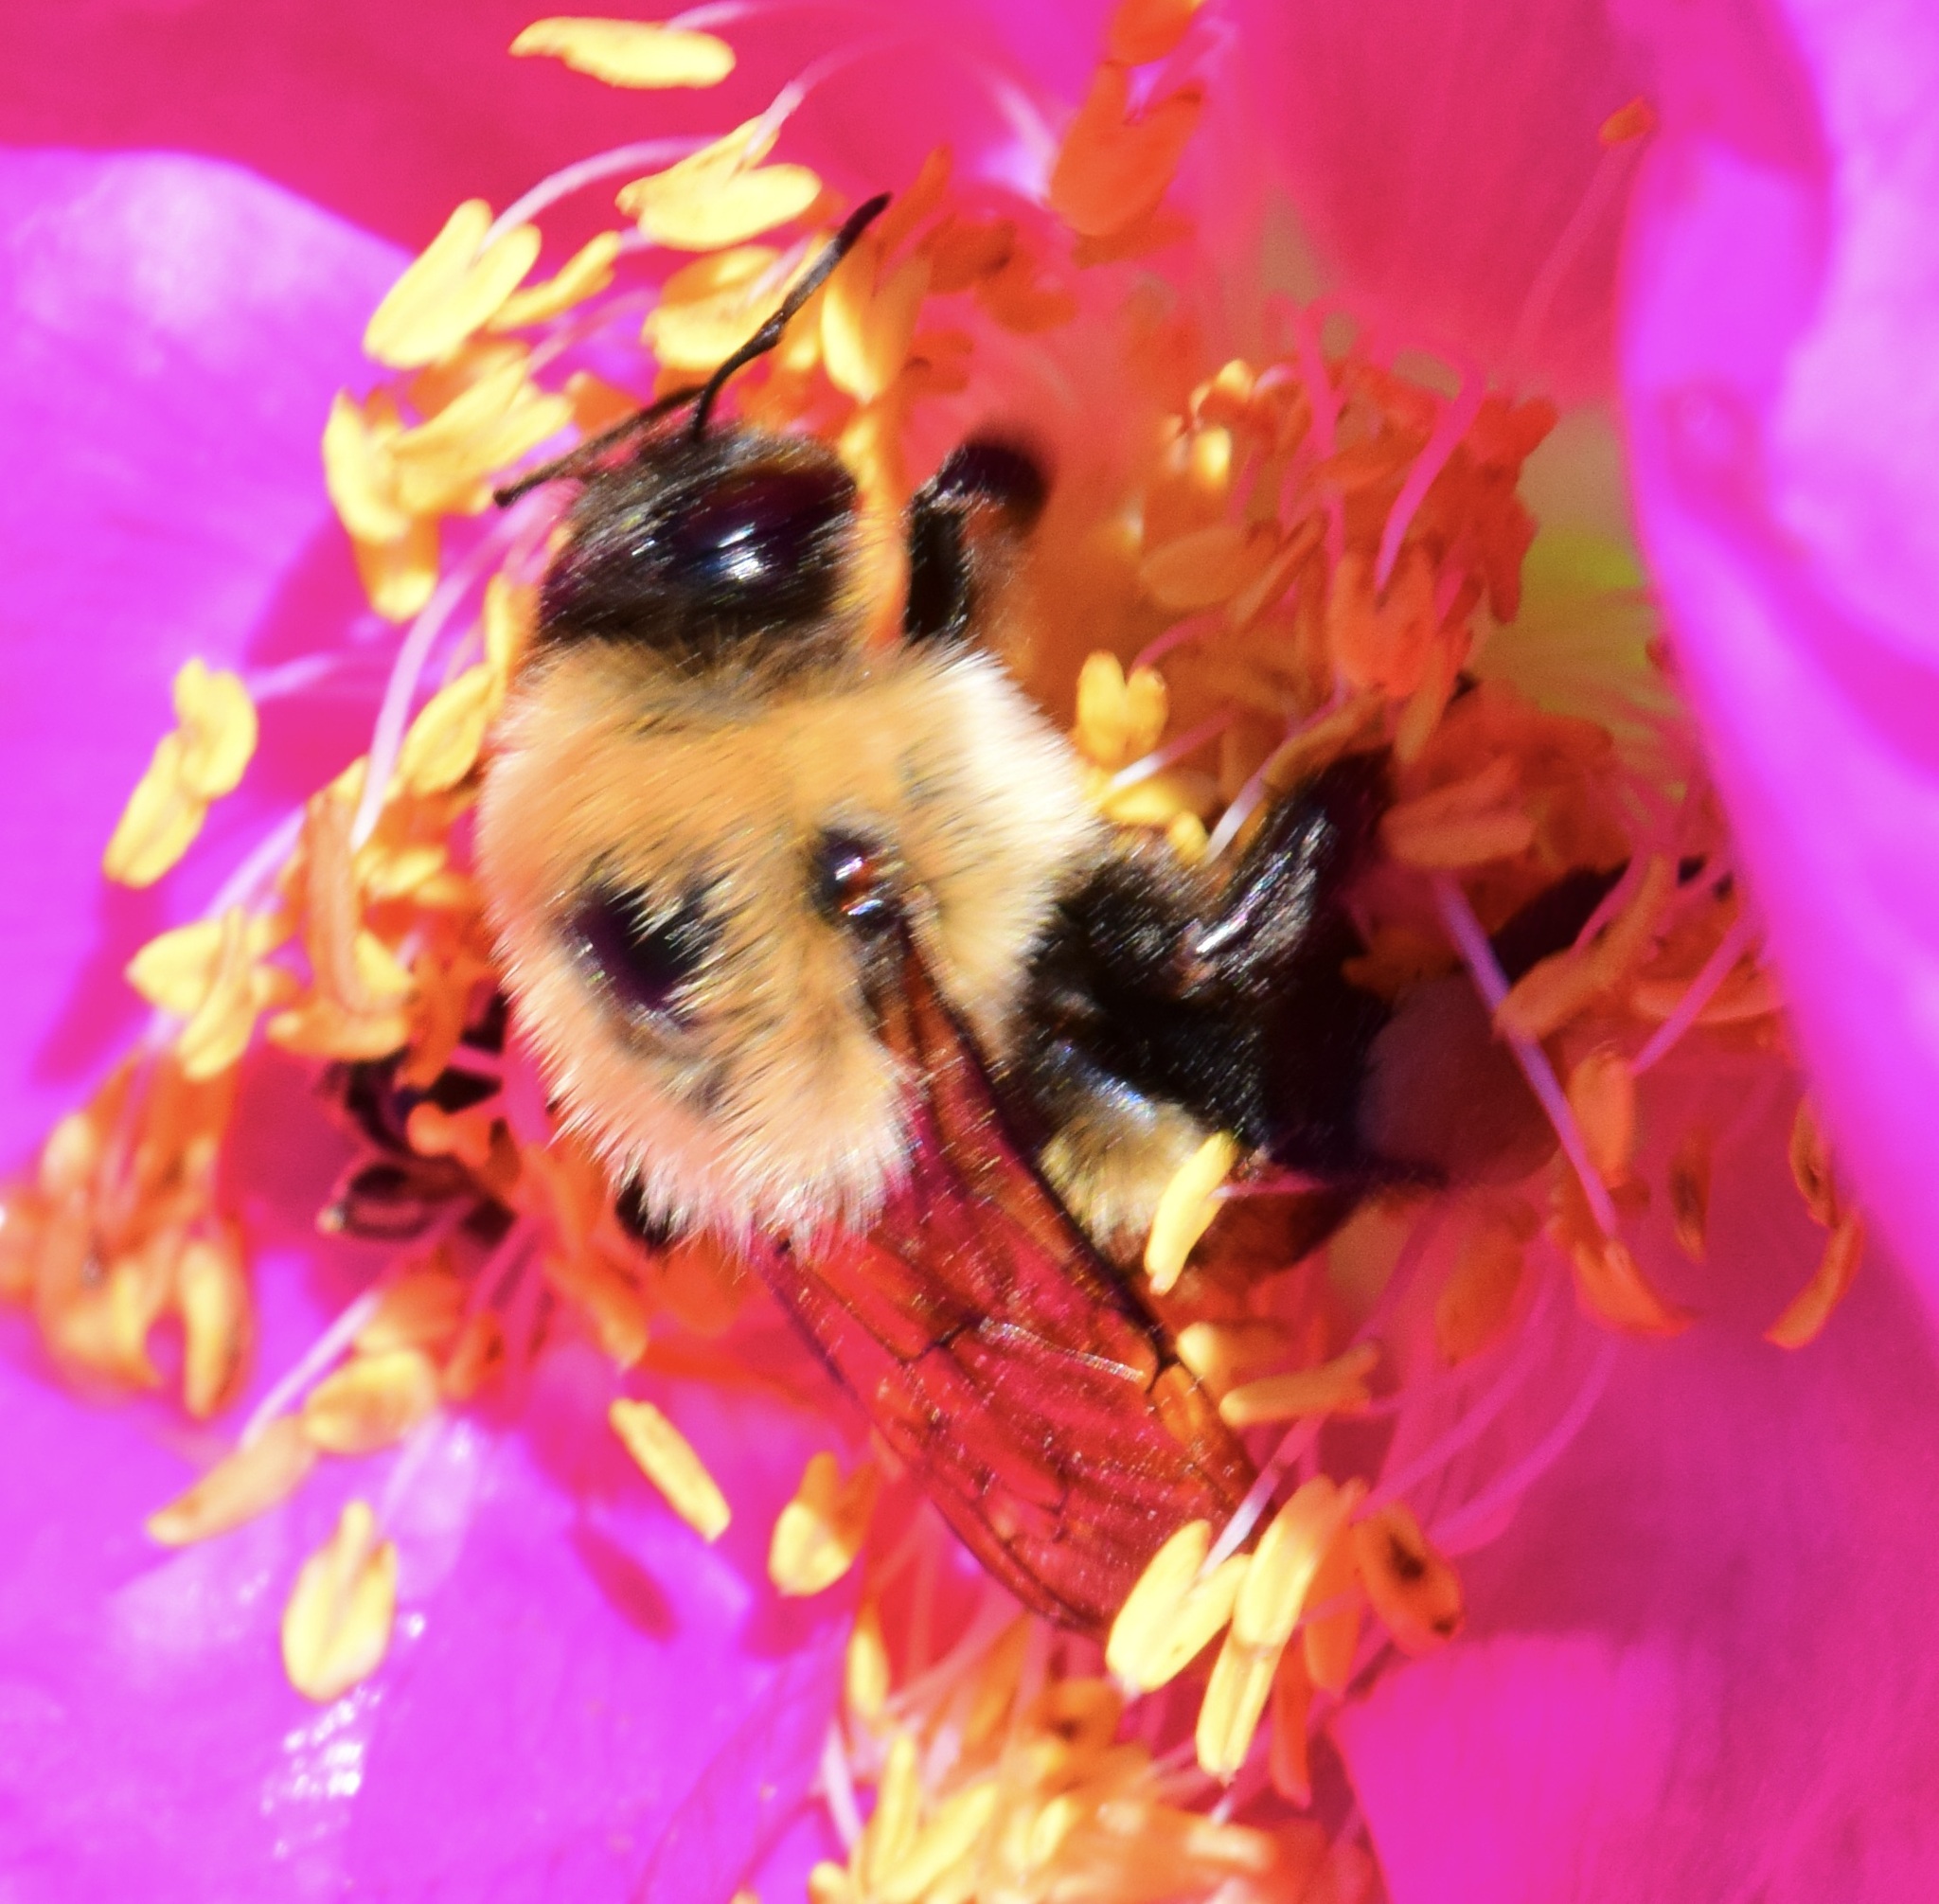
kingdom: Animalia
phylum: Arthropoda
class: Insecta
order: Hymenoptera
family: Apidae
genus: Bombus
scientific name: Bombus griseocollis
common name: Brown-belted bumble bee
